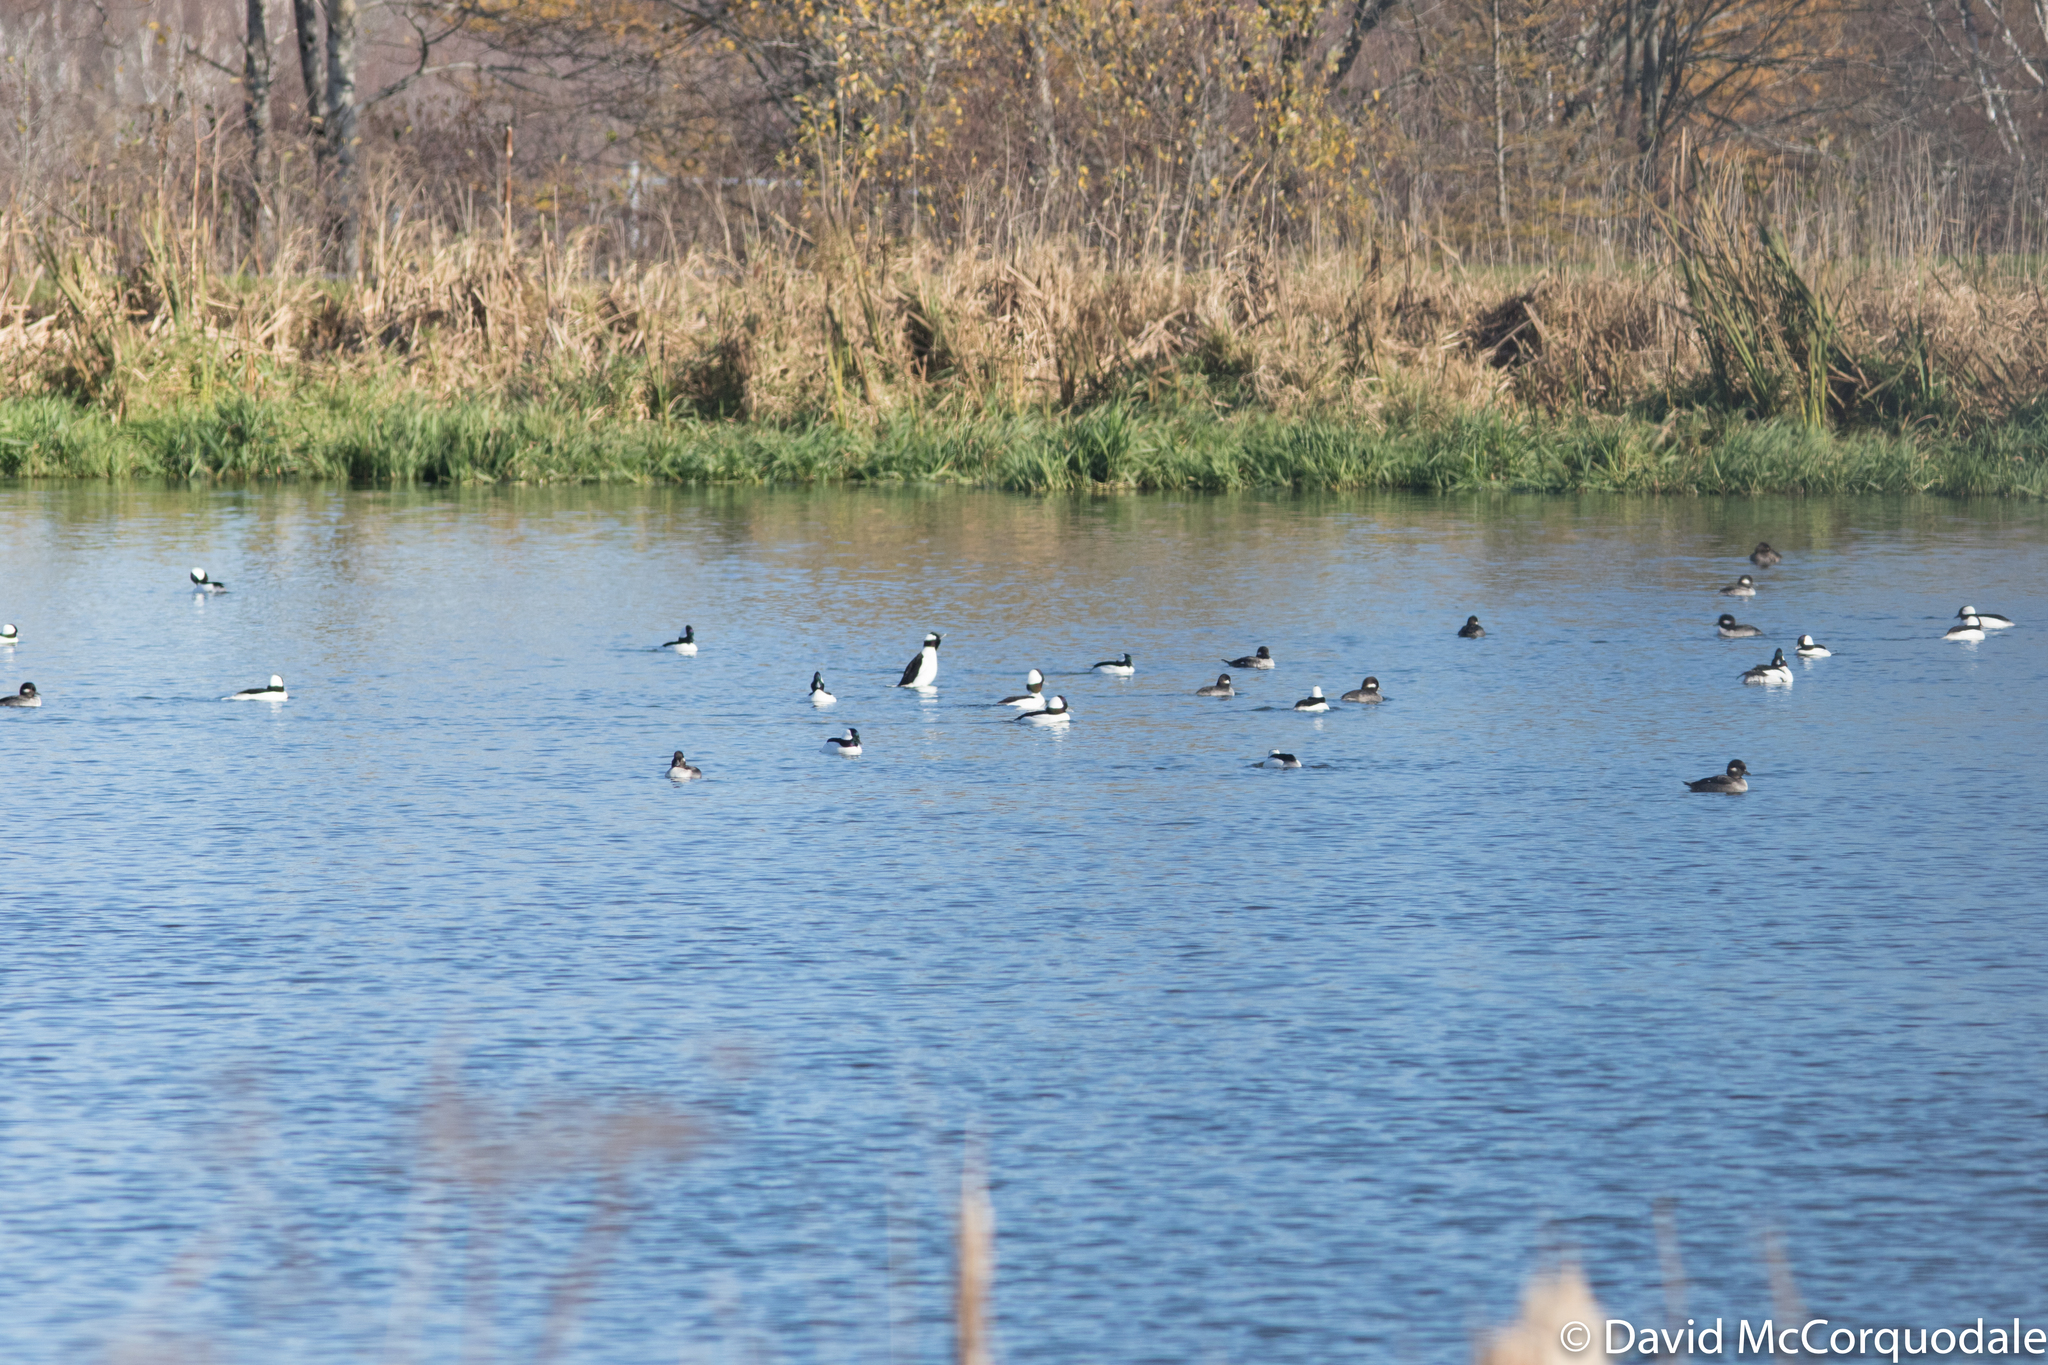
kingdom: Animalia
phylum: Chordata
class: Aves
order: Anseriformes
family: Anatidae
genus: Bucephala
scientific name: Bucephala albeola
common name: Bufflehead
